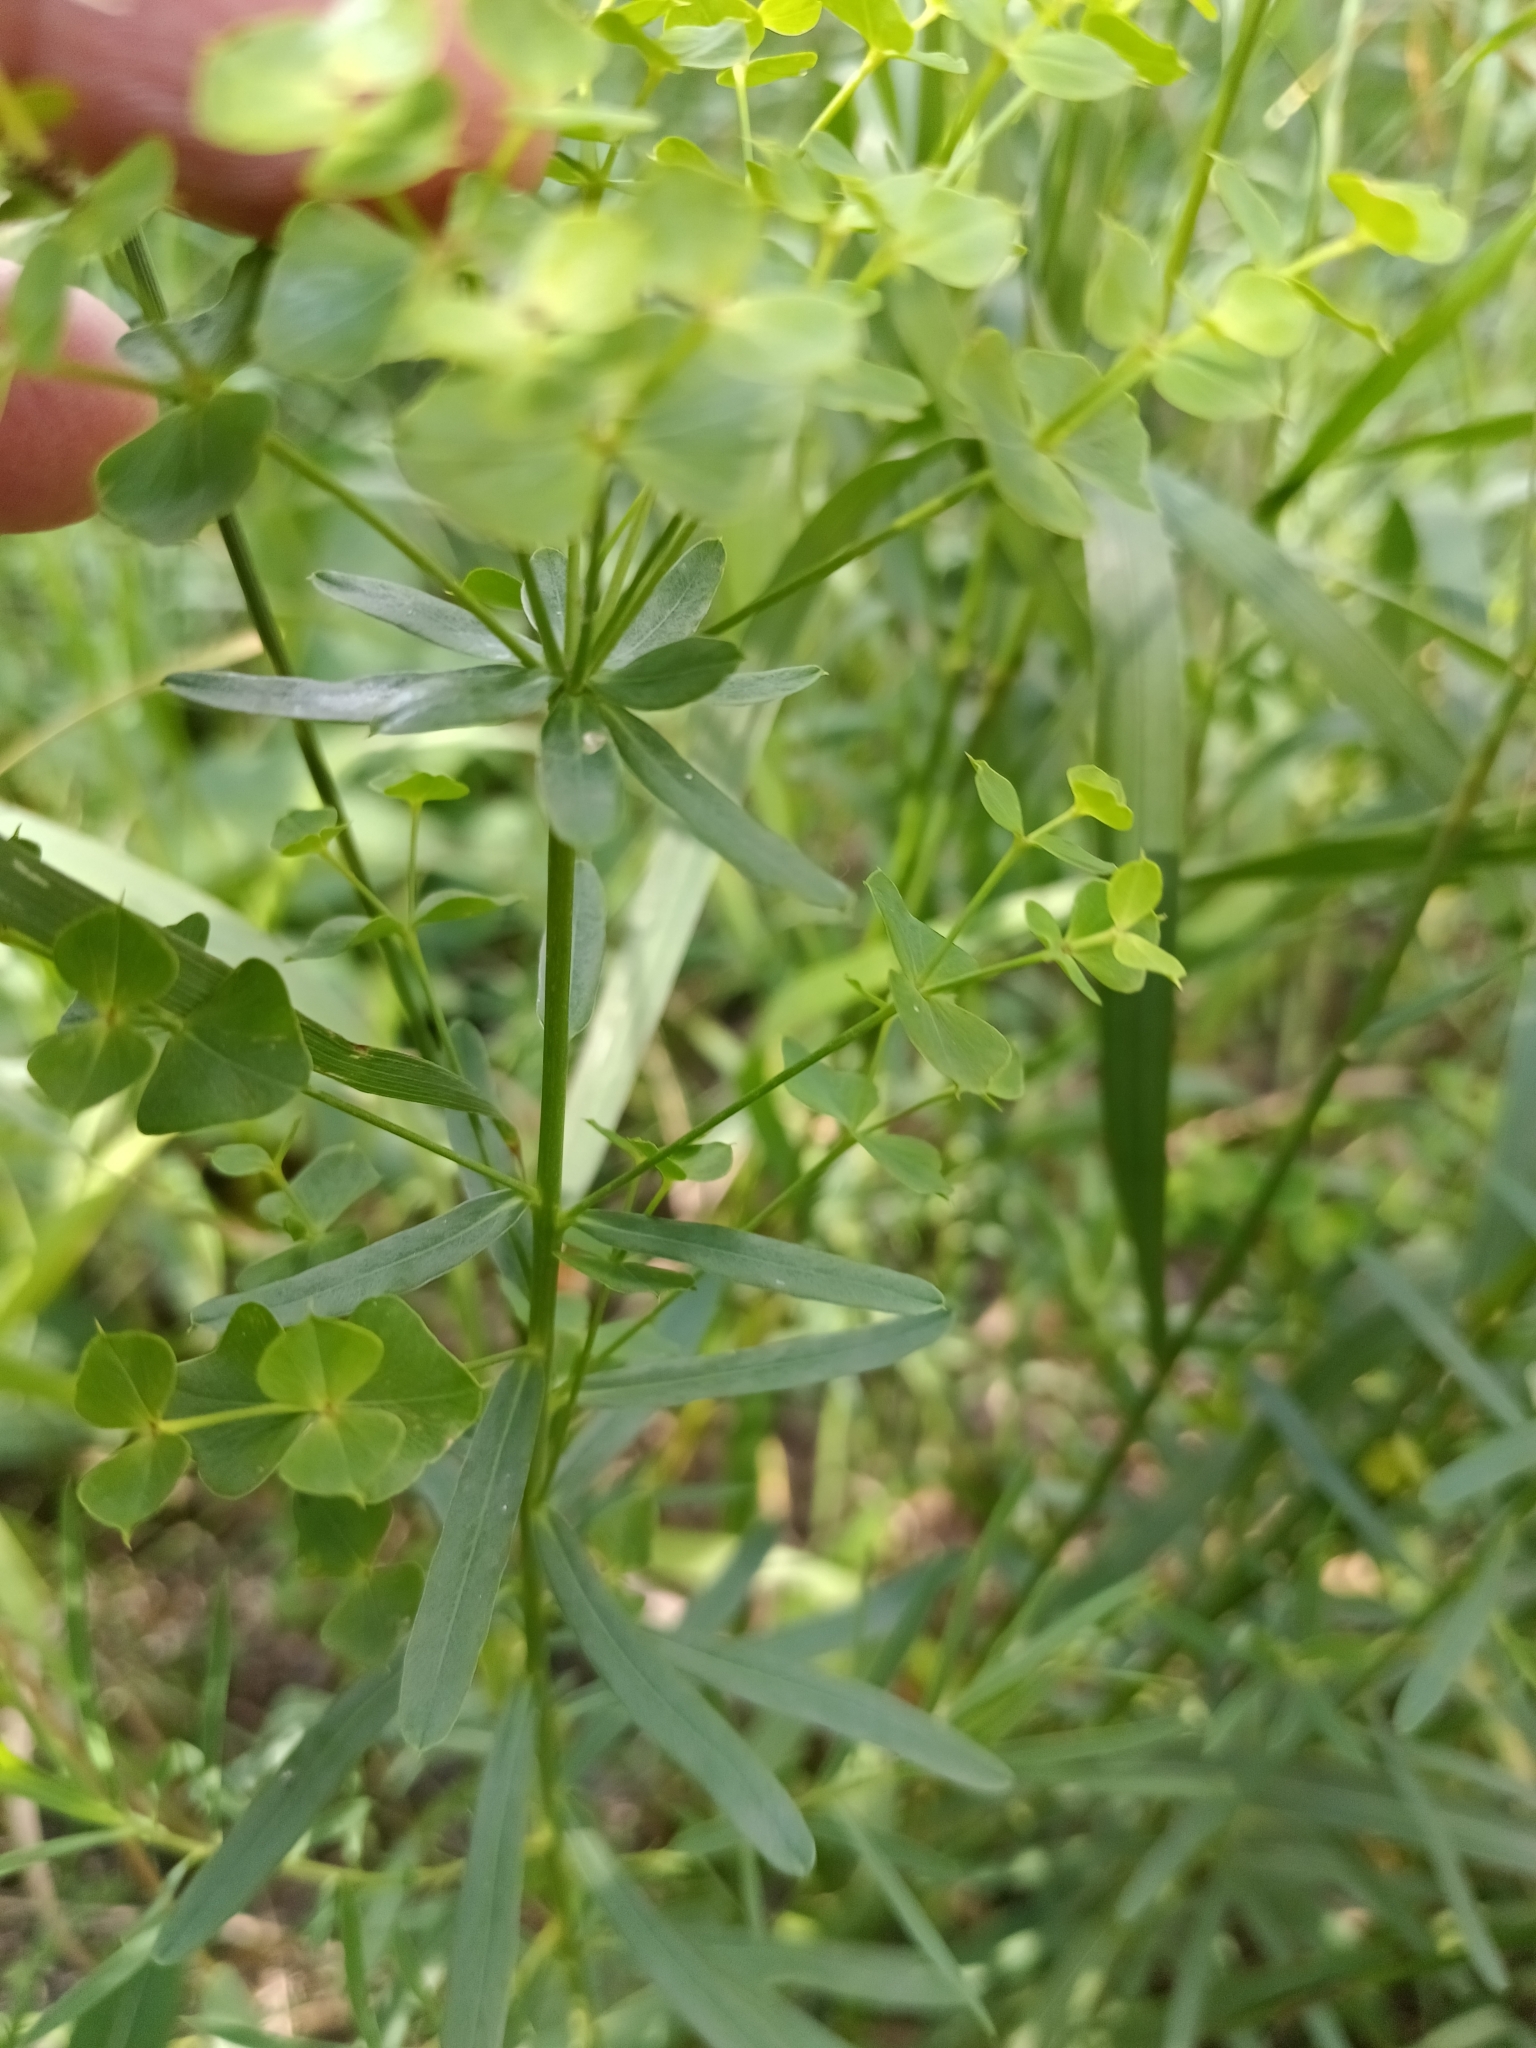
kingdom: Plantae
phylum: Tracheophyta
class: Magnoliopsida
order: Malpighiales
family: Euphorbiaceae
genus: Euphorbia
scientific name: Euphorbia virgata
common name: Leafy spurge
